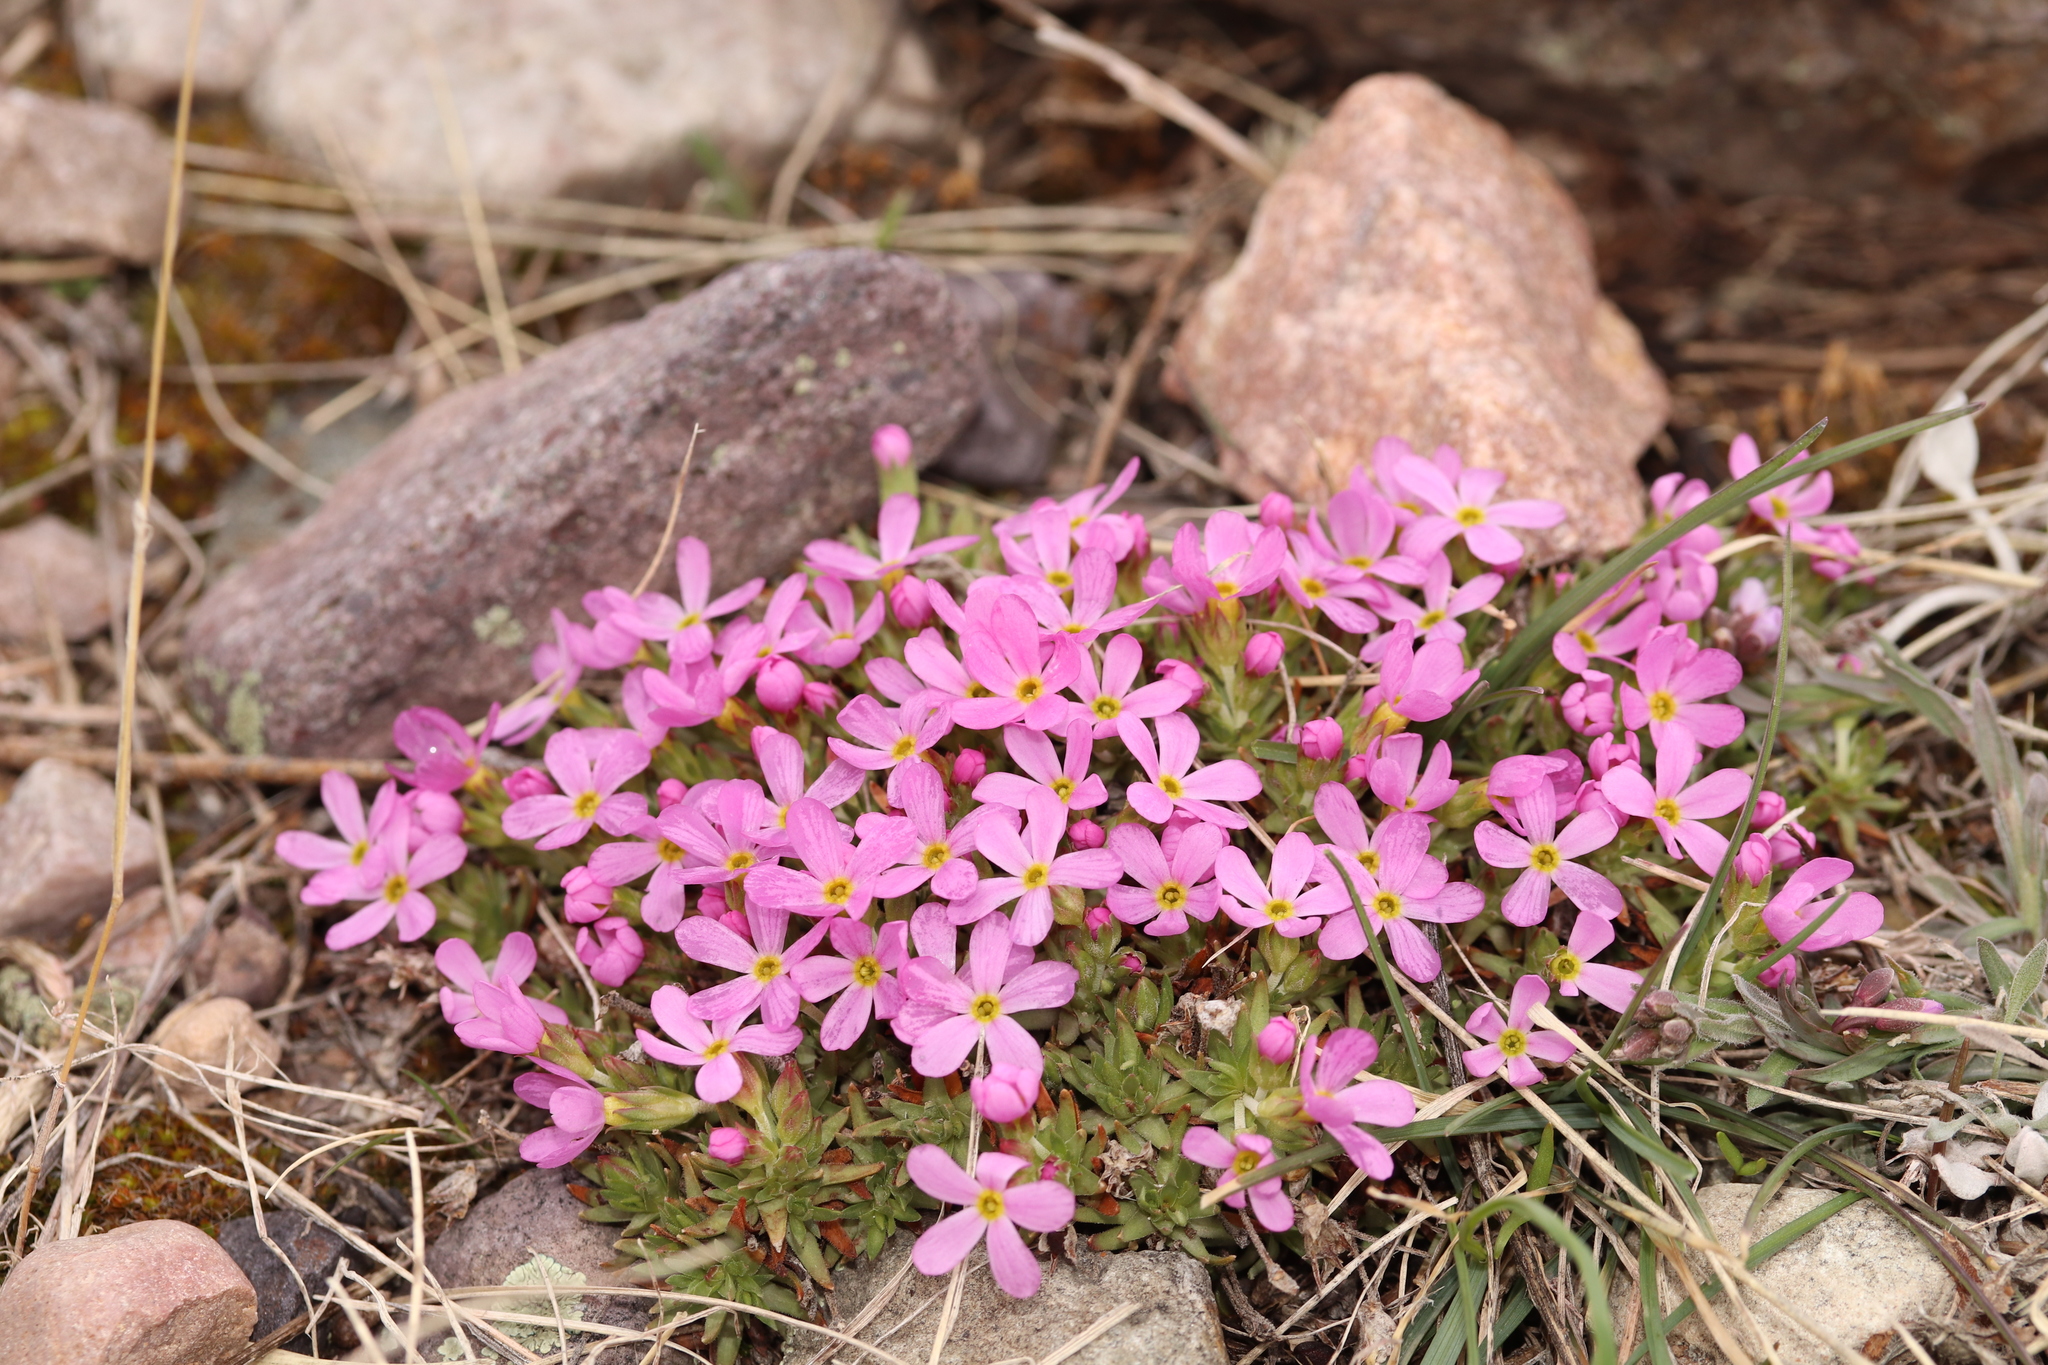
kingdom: Plantae
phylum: Tracheophyta
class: Magnoliopsida
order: Ericales
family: Primulaceae
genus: Androsace
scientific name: Androsace montana
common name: Rocky mountain dwarf-primrose
